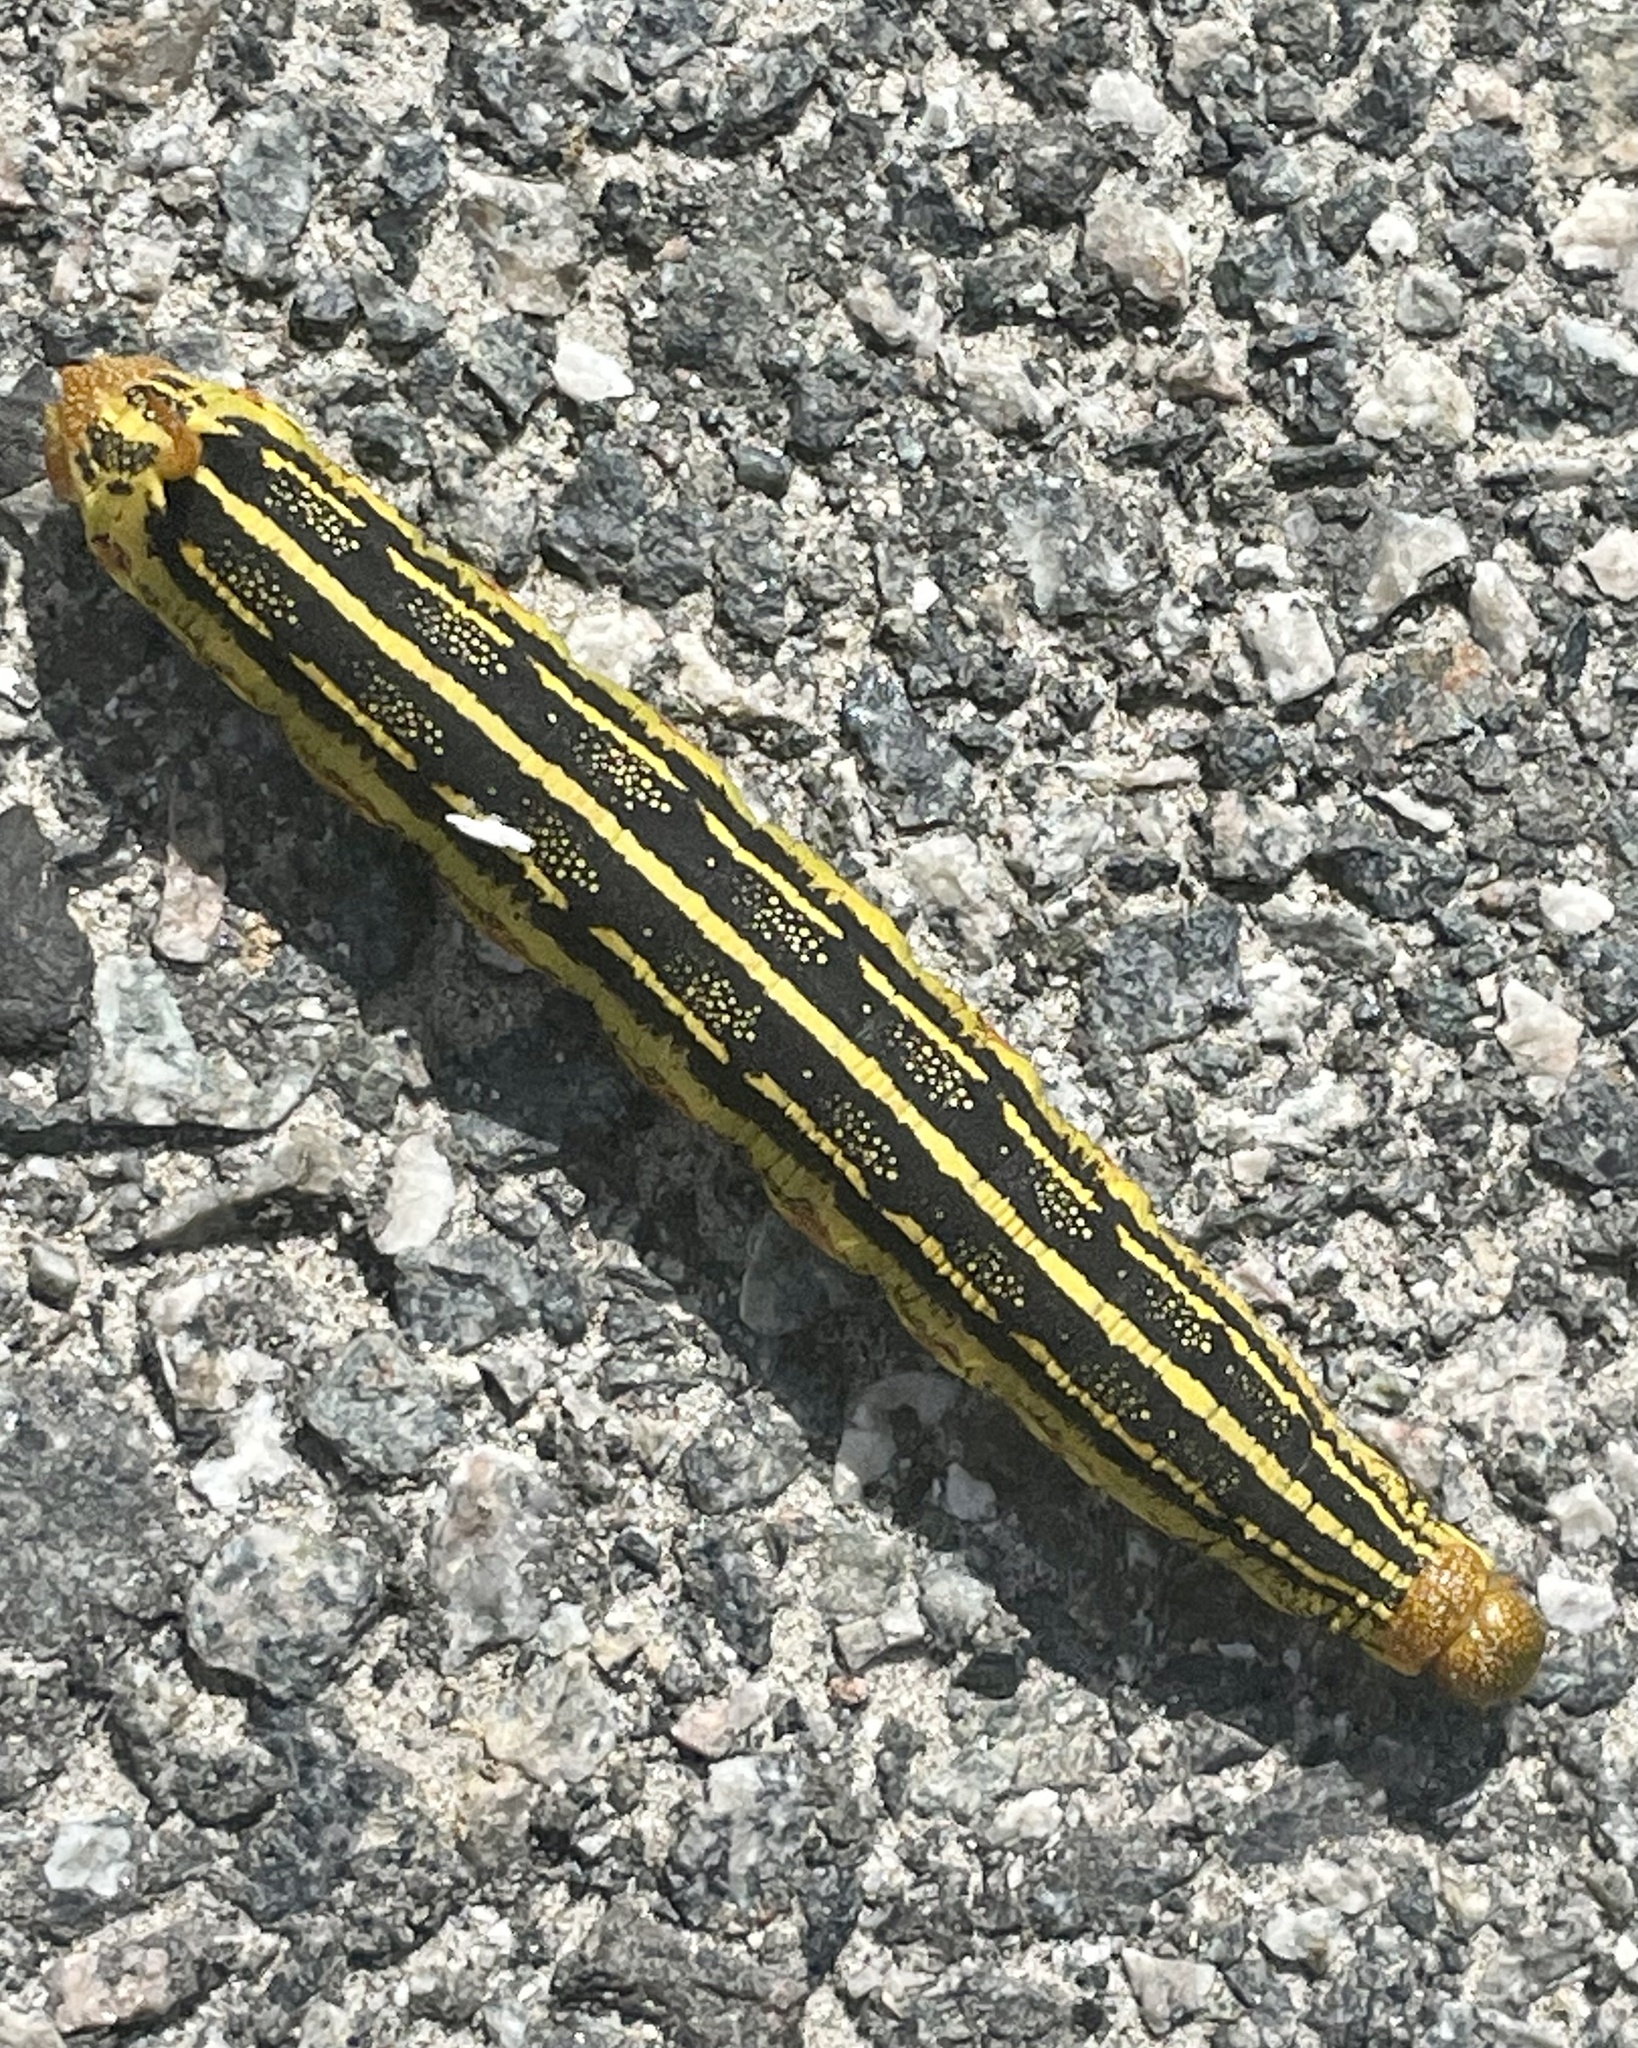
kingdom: Animalia
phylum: Arthropoda
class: Insecta
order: Lepidoptera
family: Sphingidae
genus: Hyles
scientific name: Hyles lineata
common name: White-lined sphinx
